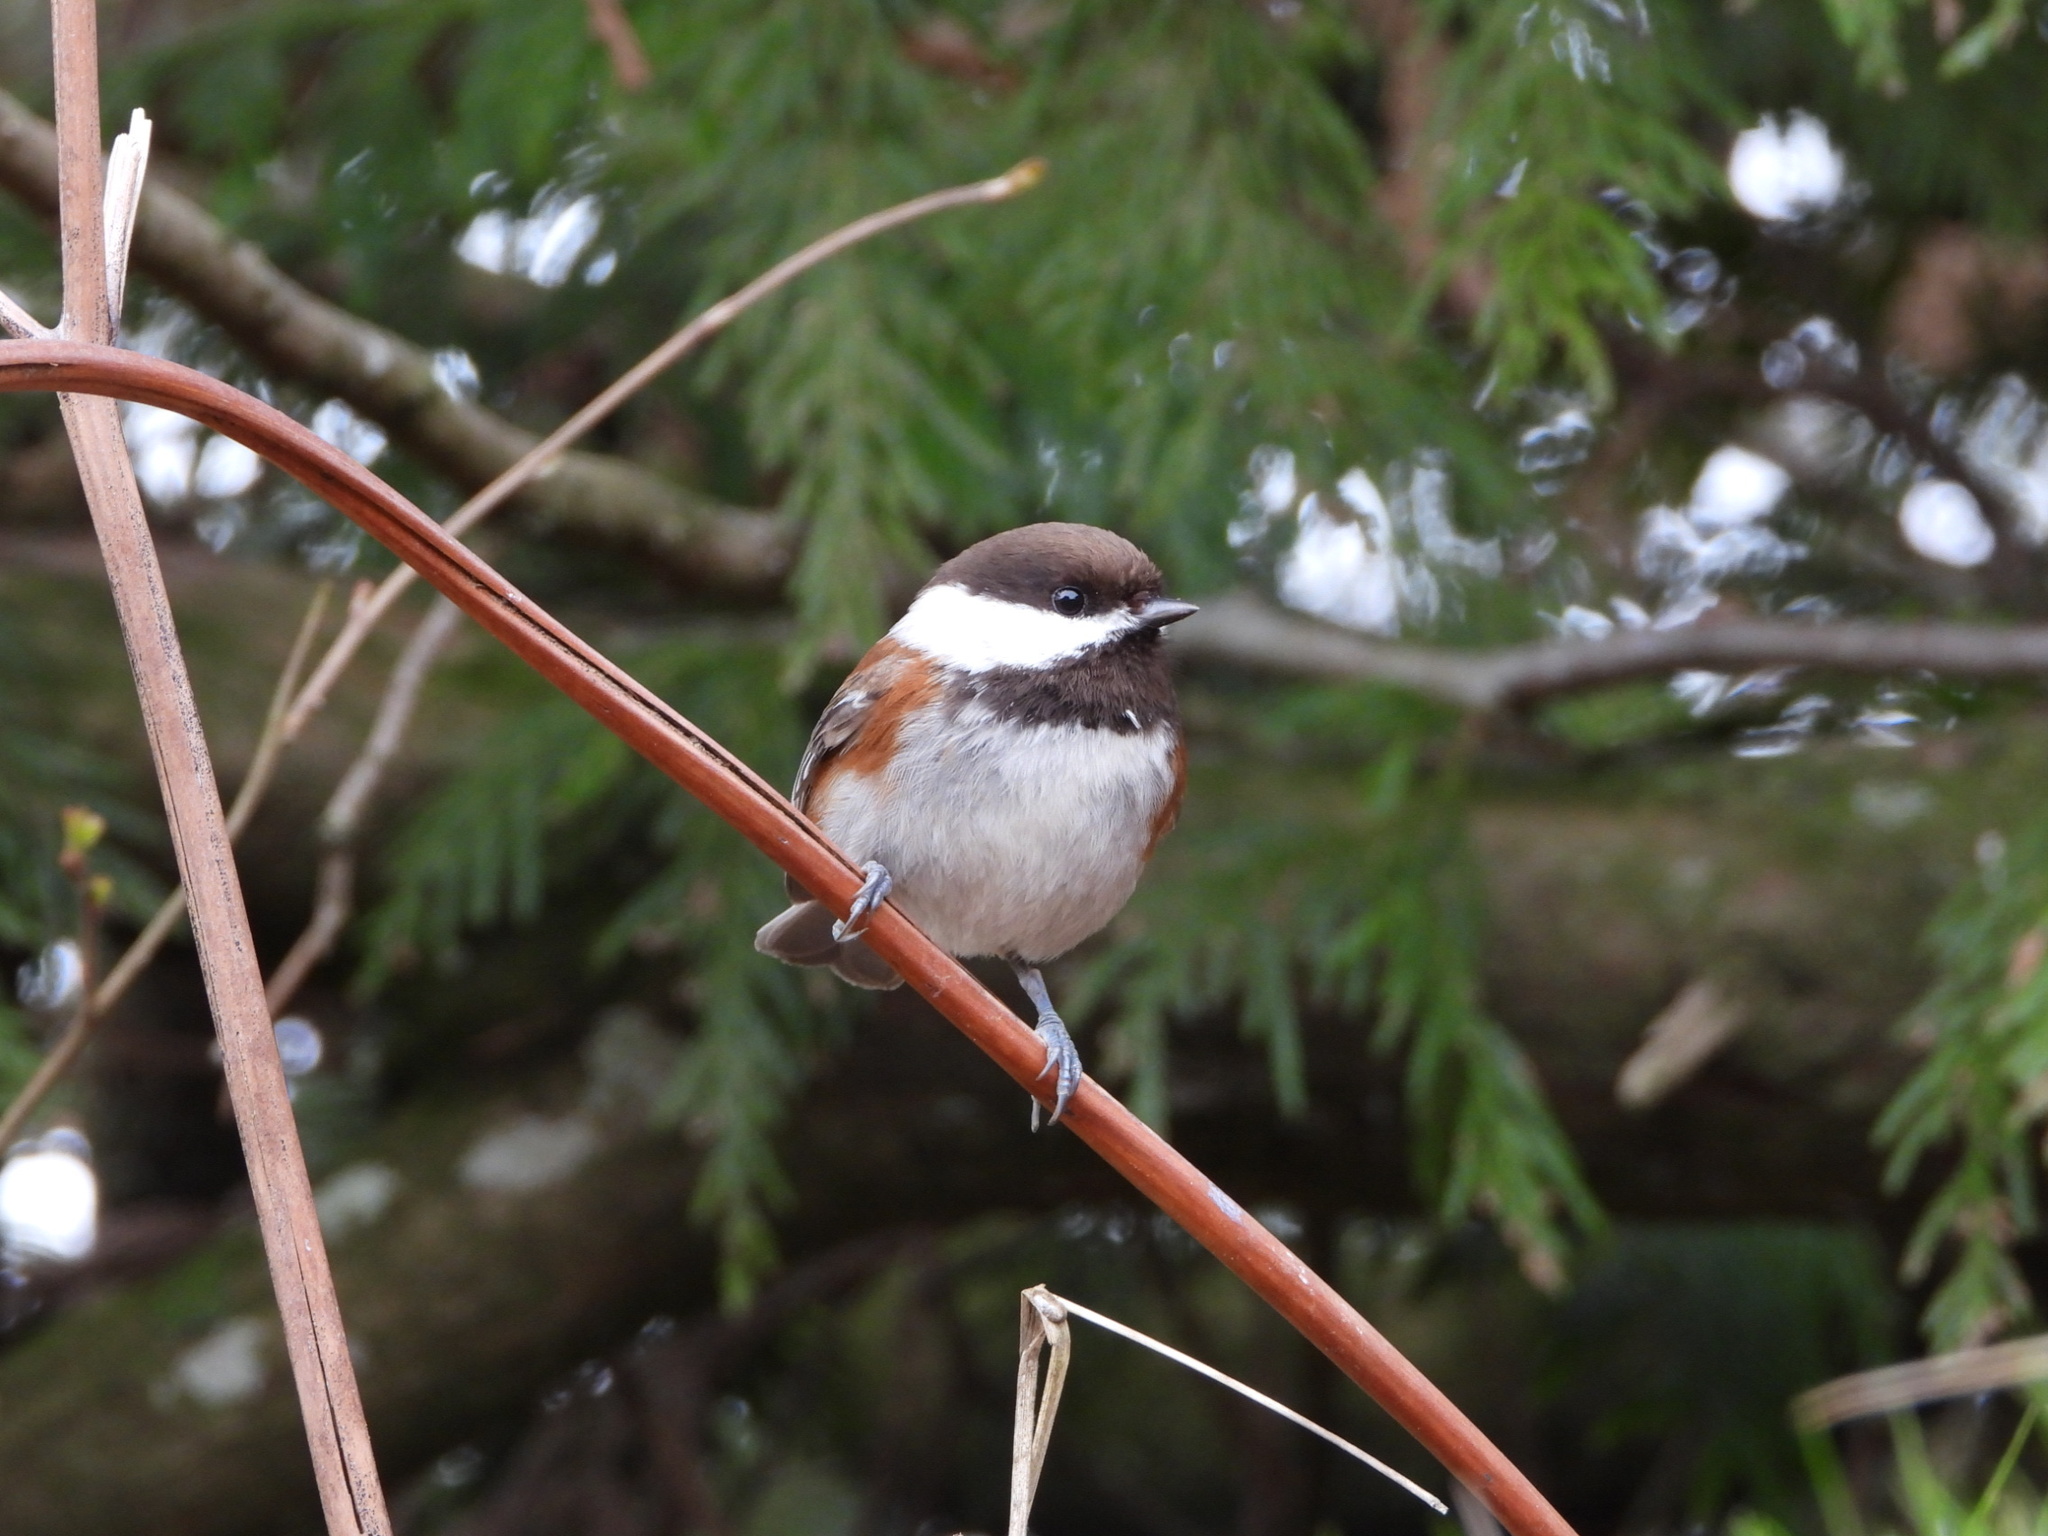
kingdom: Animalia
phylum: Chordata
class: Aves
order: Passeriformes
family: Paridae
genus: Poecile
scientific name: Poecile rufescens
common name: Chestnut-backed chickadee
